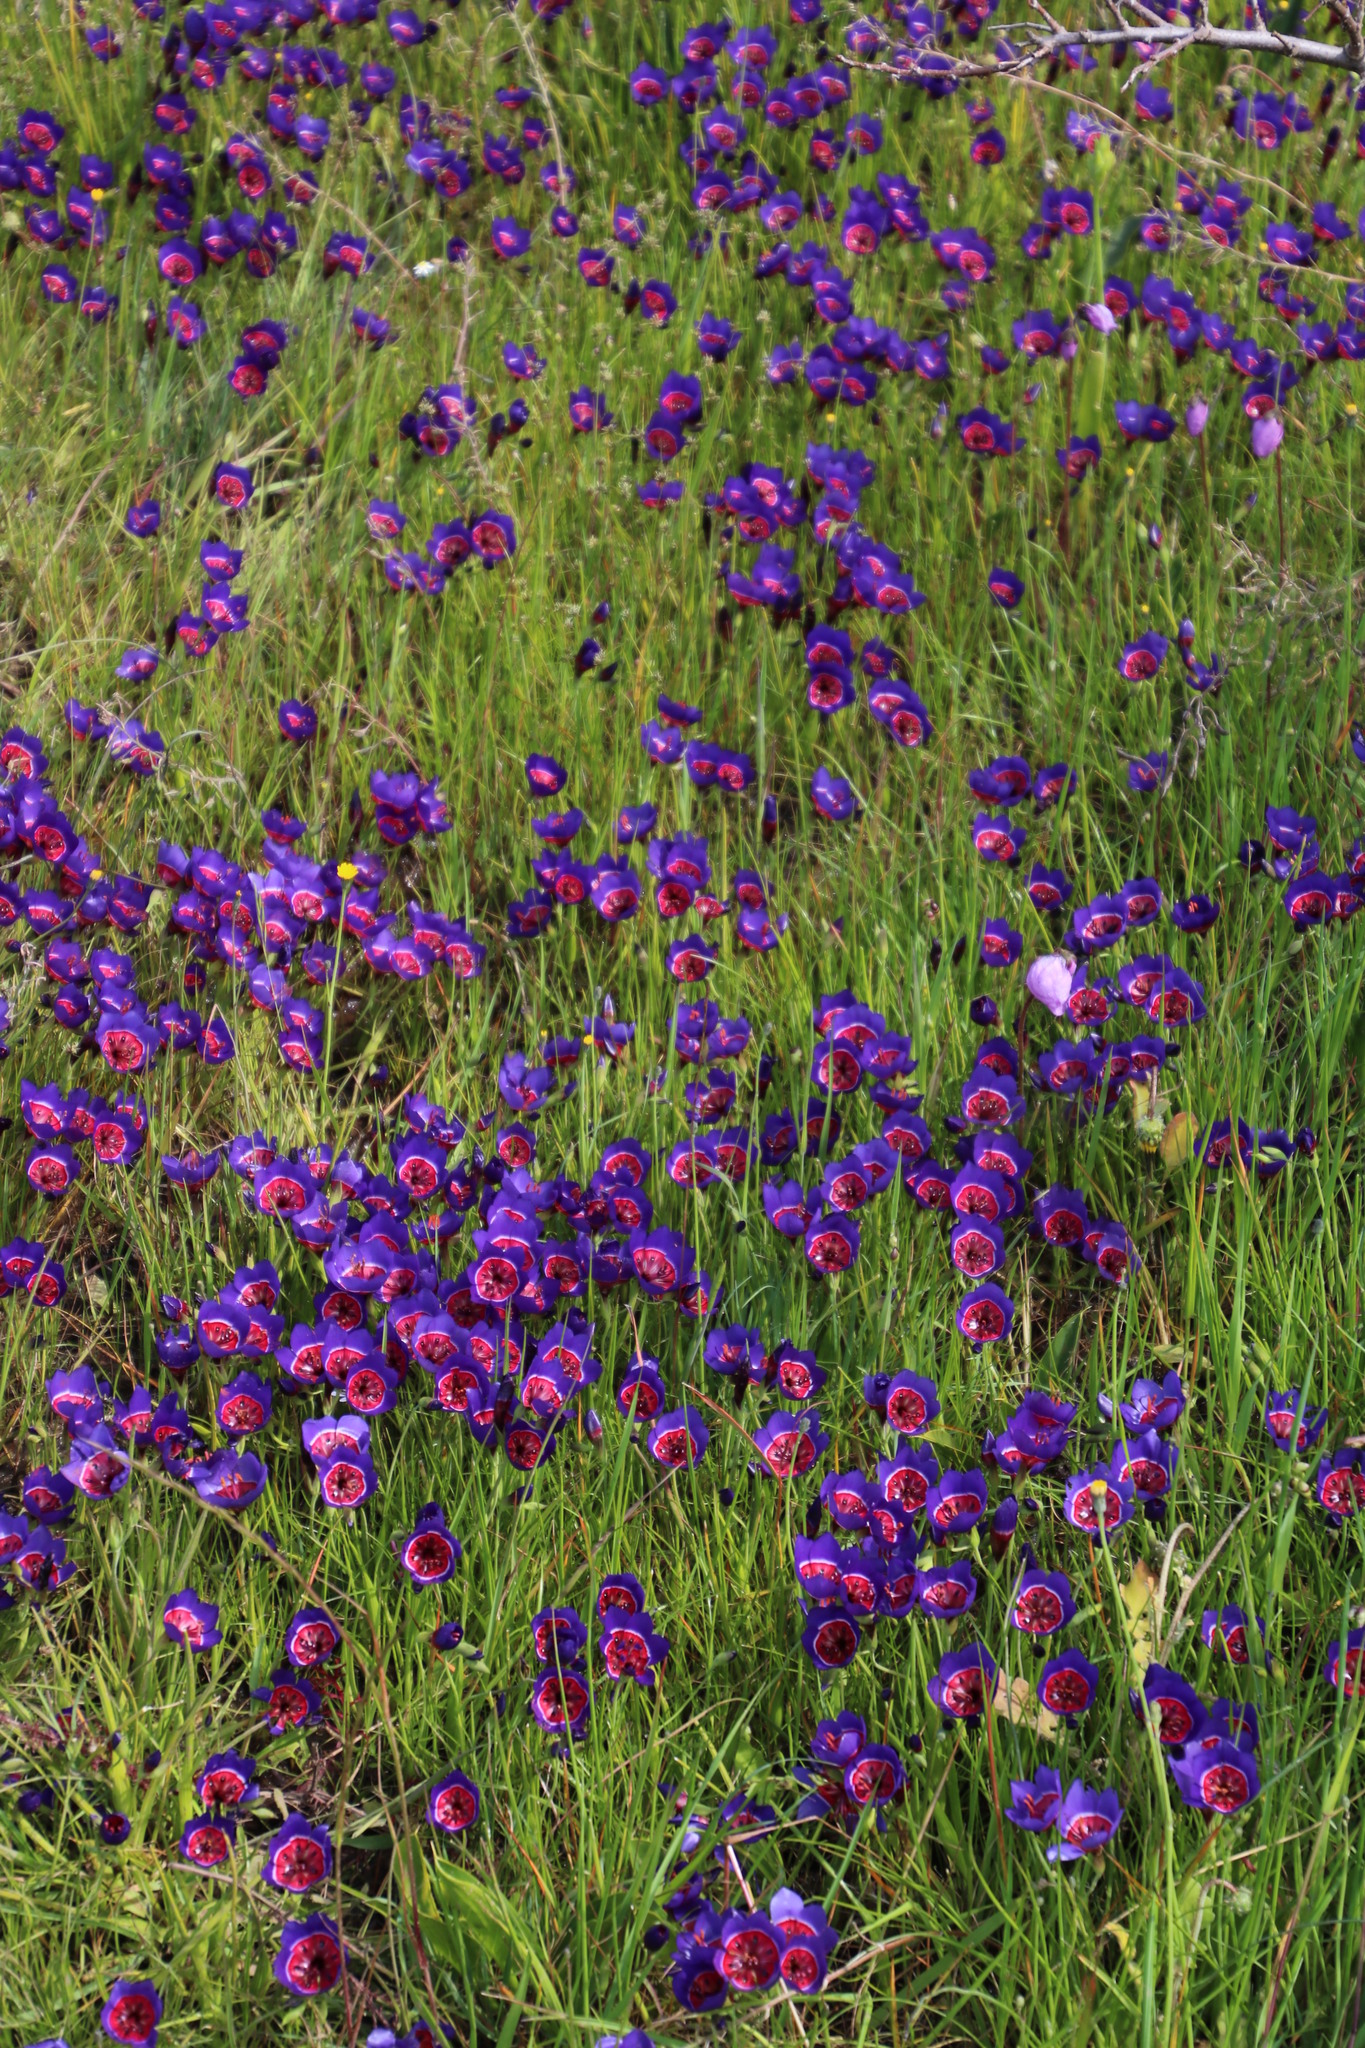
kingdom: Plantae
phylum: Tracheophyta
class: Liliopsida
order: Asparagales
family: Iridaceae
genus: Geissorhiza
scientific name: Geissorhiza radians
